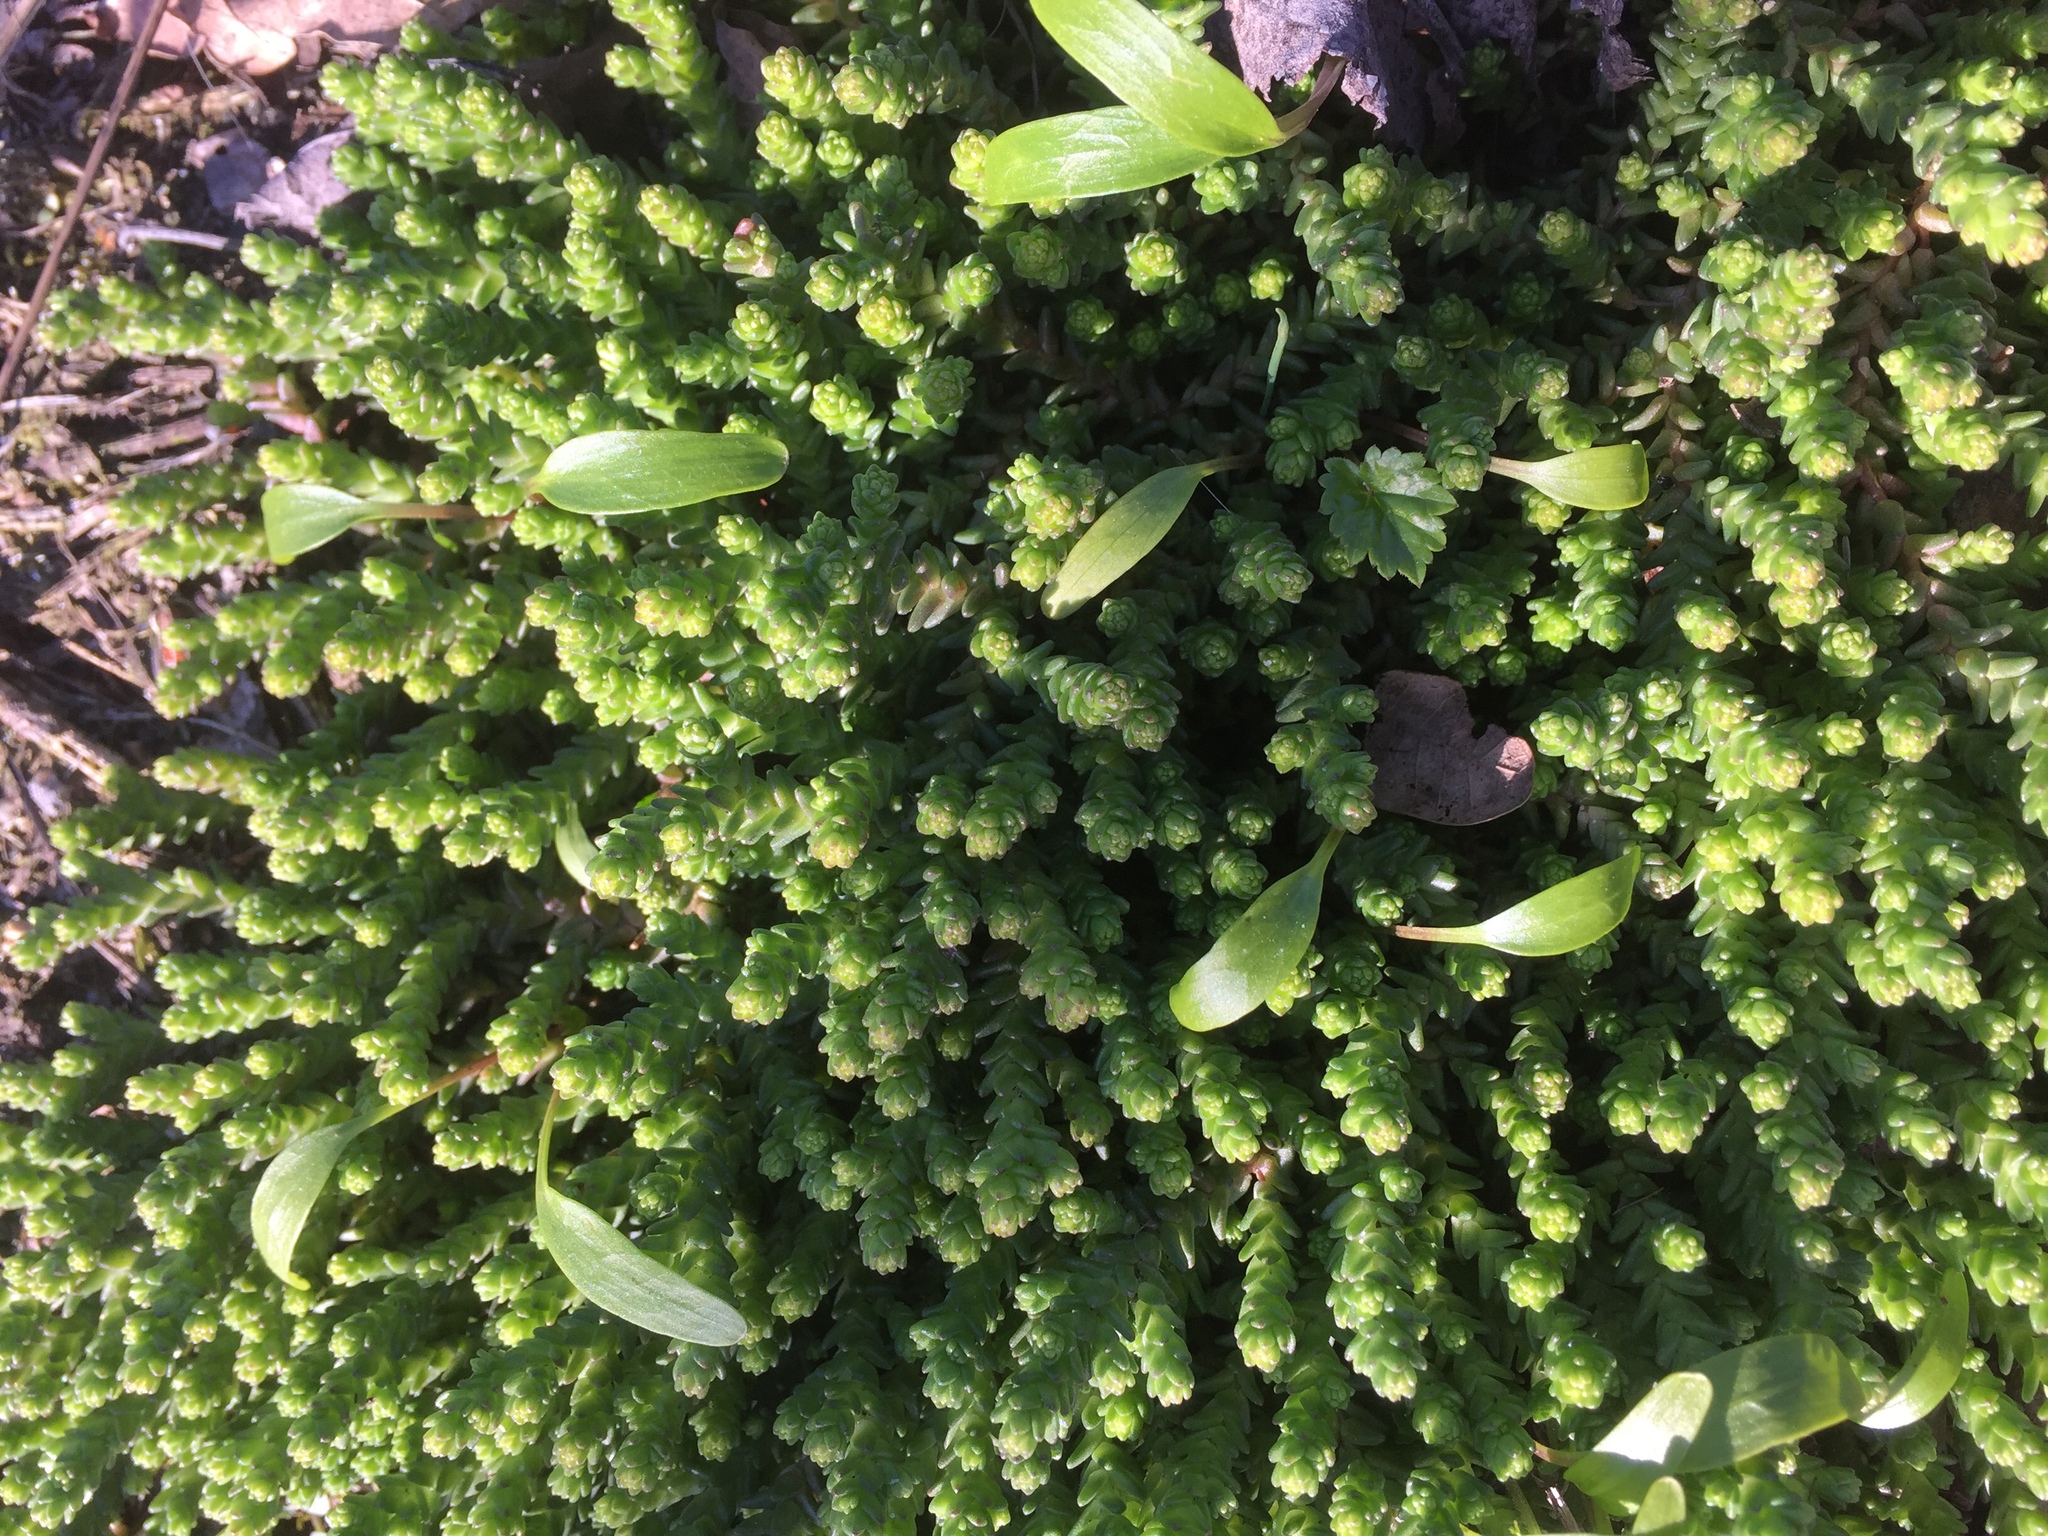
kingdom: Plantae
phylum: Tracheophyta
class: Magnoliopsida
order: Saxifragales
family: Crassulaceae
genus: Sedum
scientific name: Sedum acre
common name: Biting stonecrop
